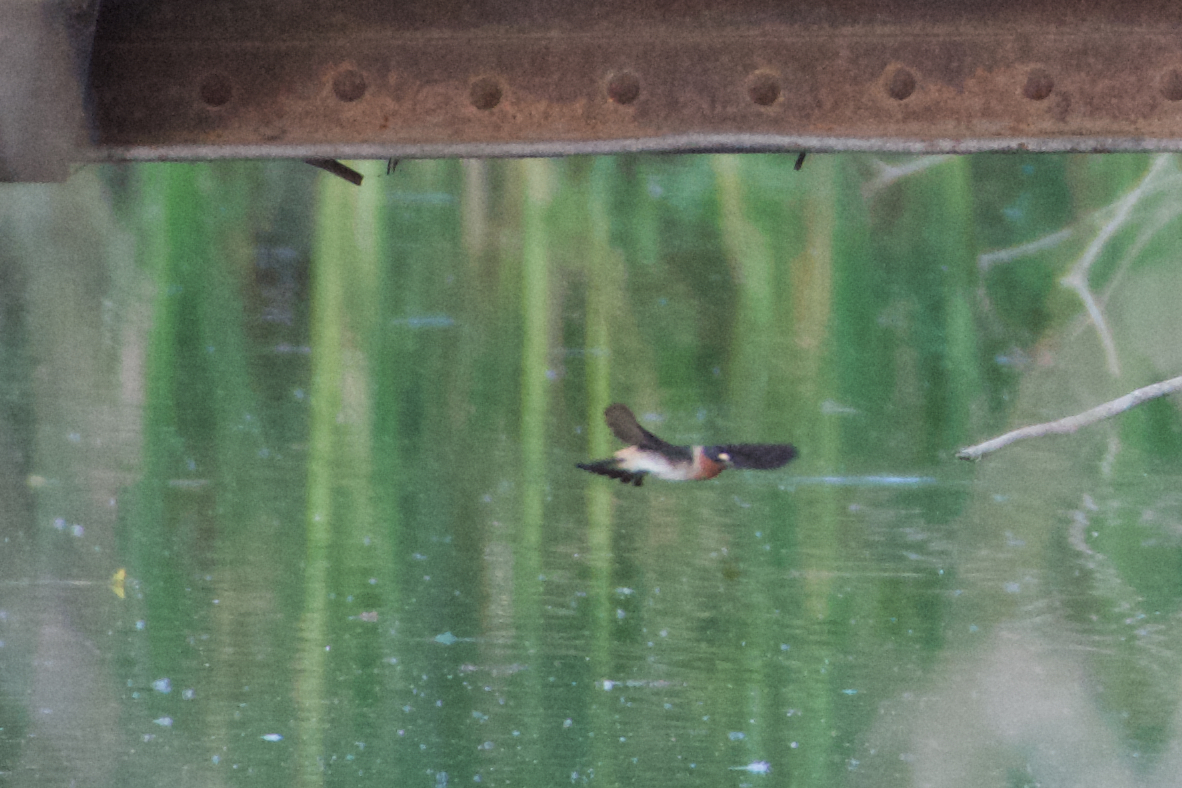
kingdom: Animalia
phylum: Chordata
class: Aves
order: Passeriformes
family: Hirundinidae
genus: Petrochelidon
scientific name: Petrochelidon pyrrhonota
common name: American cliff swallow
